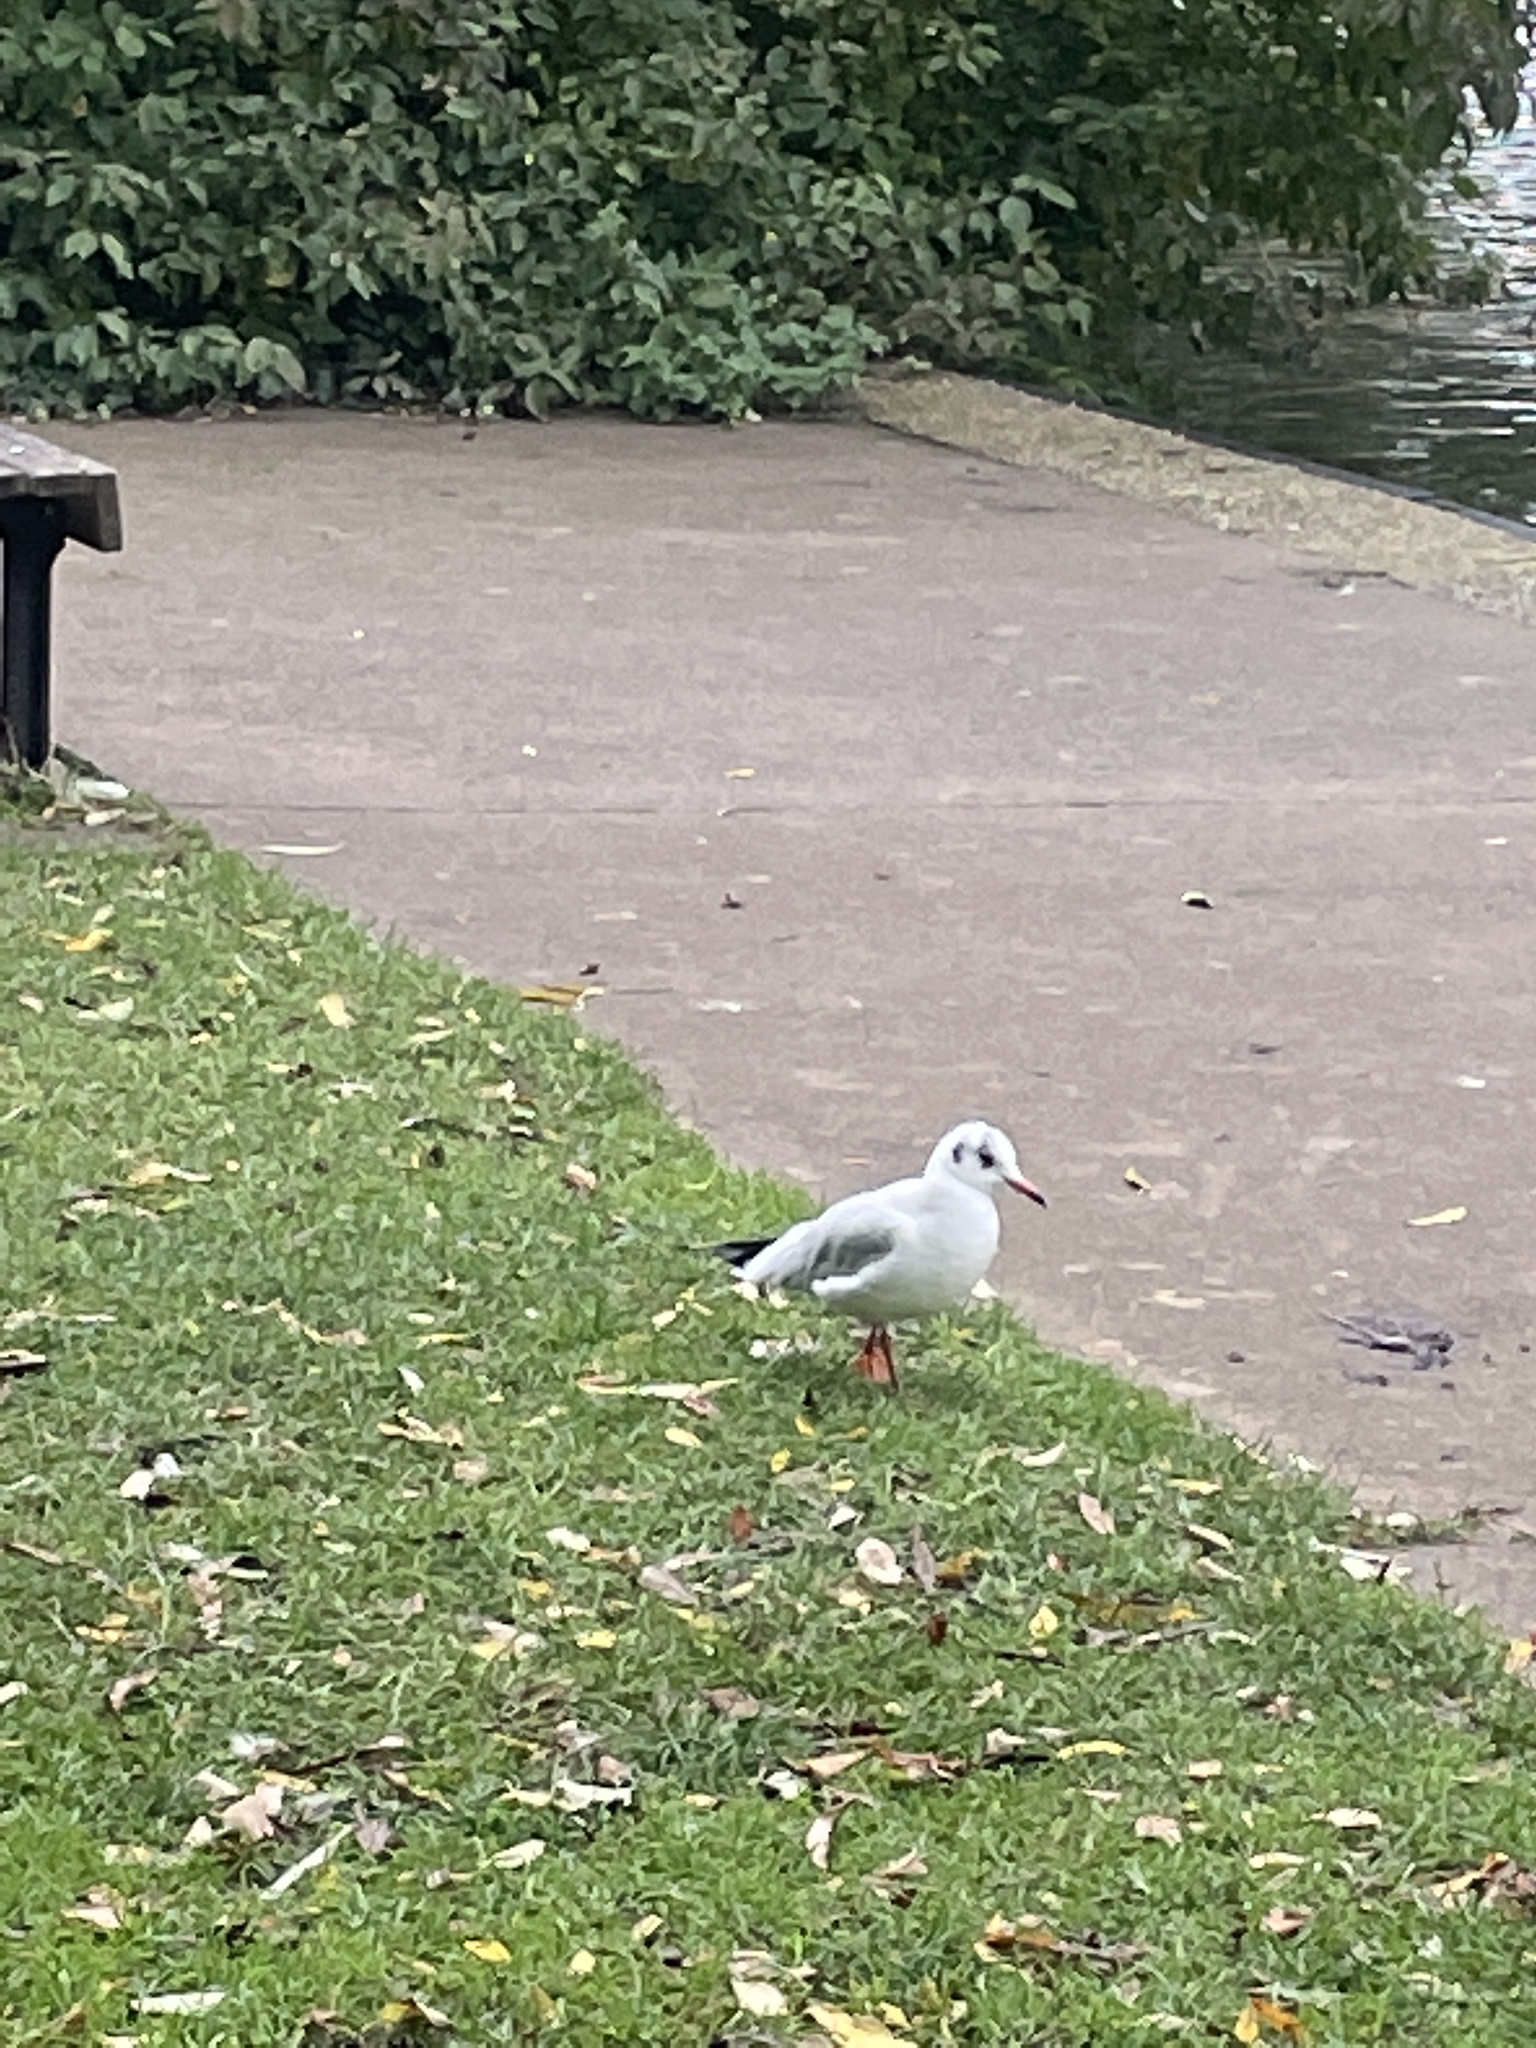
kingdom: Animalia
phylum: Chordata
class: Aves
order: Charadriiformes
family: Laridae
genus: Chroicocephalus
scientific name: Chroicocephalus ridibundus
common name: Black-headed gull
